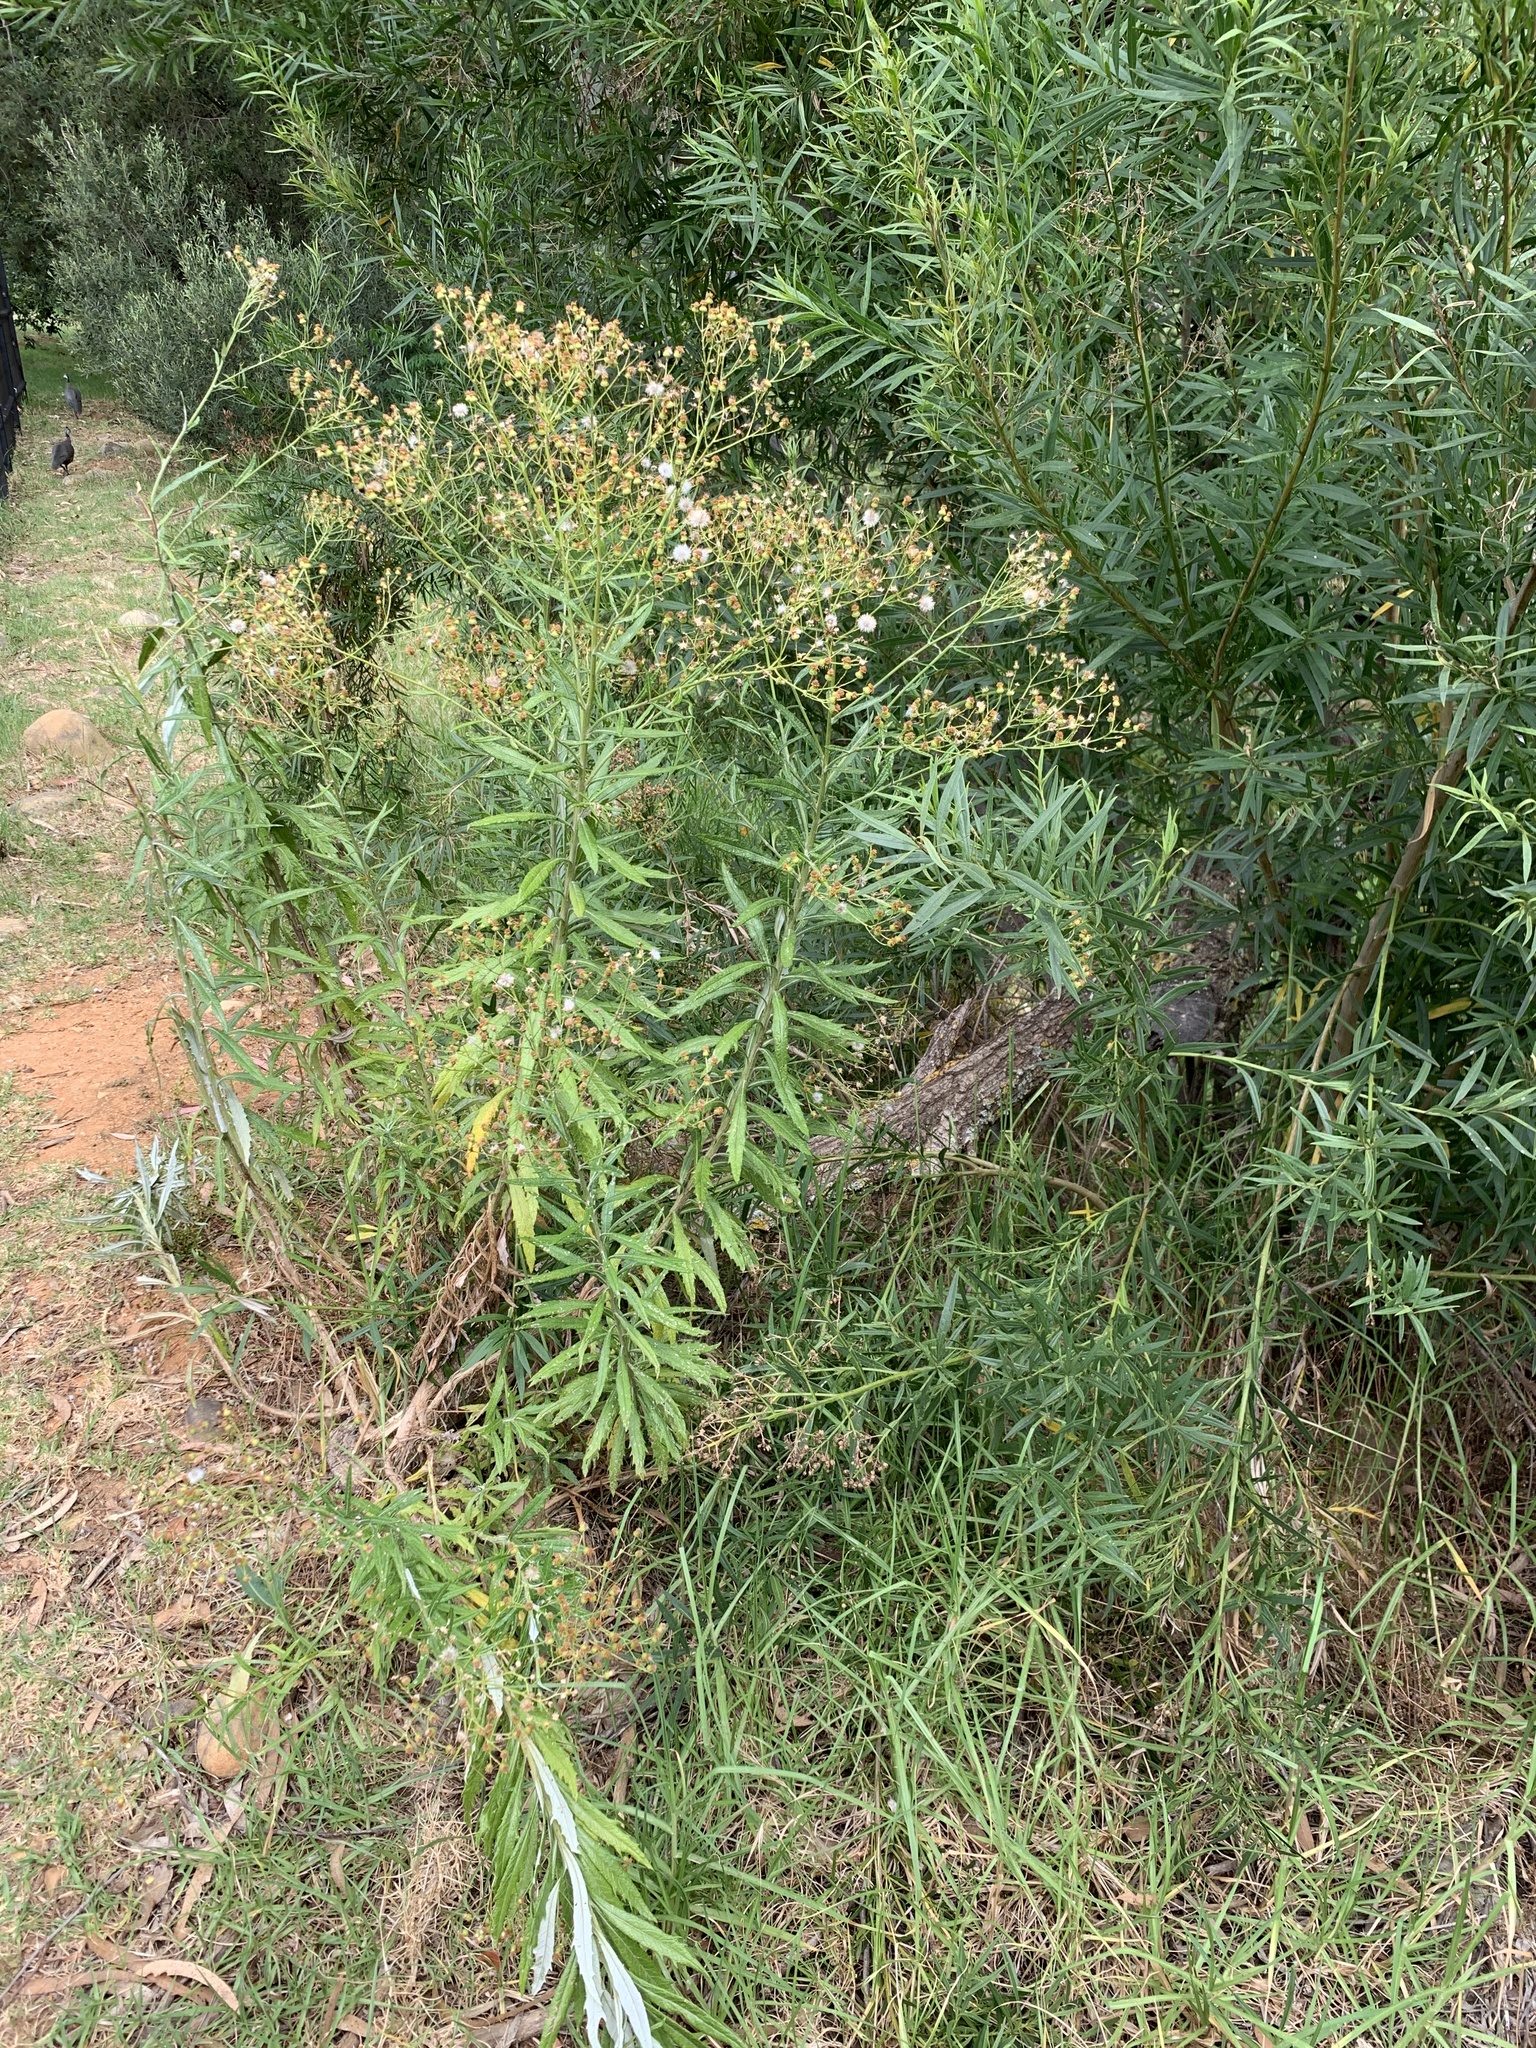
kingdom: Plantae
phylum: Tracheophyta
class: Magnoliopsida
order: Asterales
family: Asteraceae
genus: Senecio
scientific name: Senecio pterophorus
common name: Shoddy ragwort
